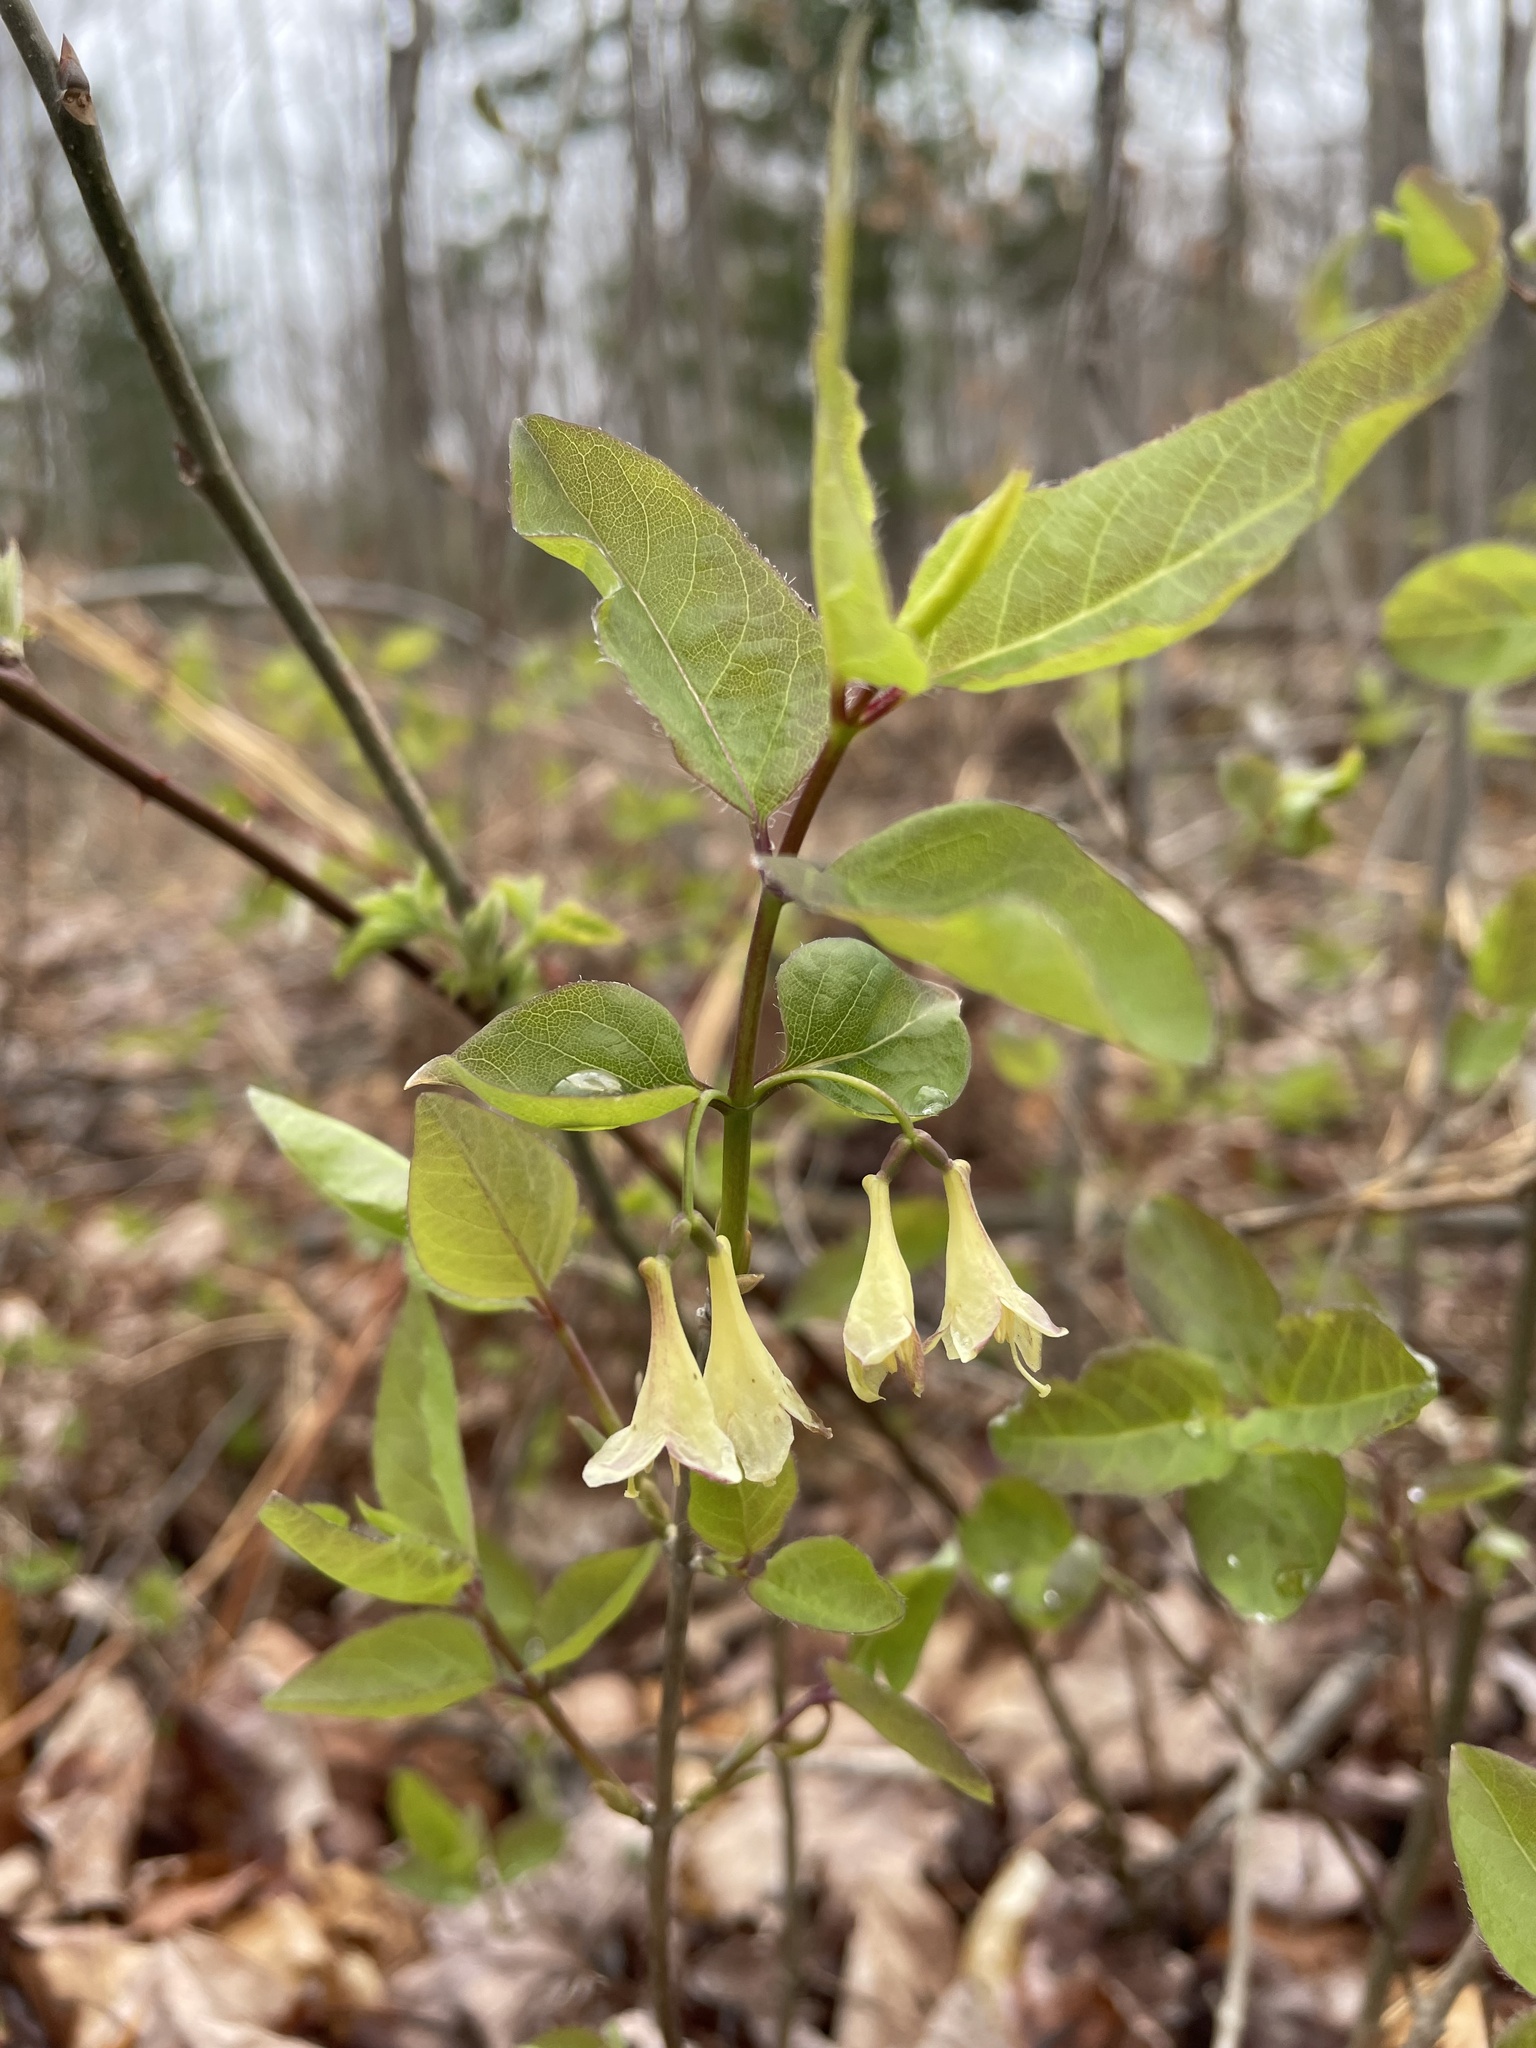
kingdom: Plantae
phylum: Tracheophyta
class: Magnoliopsida
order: Dipsacales
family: Caprifoliaceae
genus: Lonicera
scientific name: Lonicera canadensis
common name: American fly-honeysuckle
